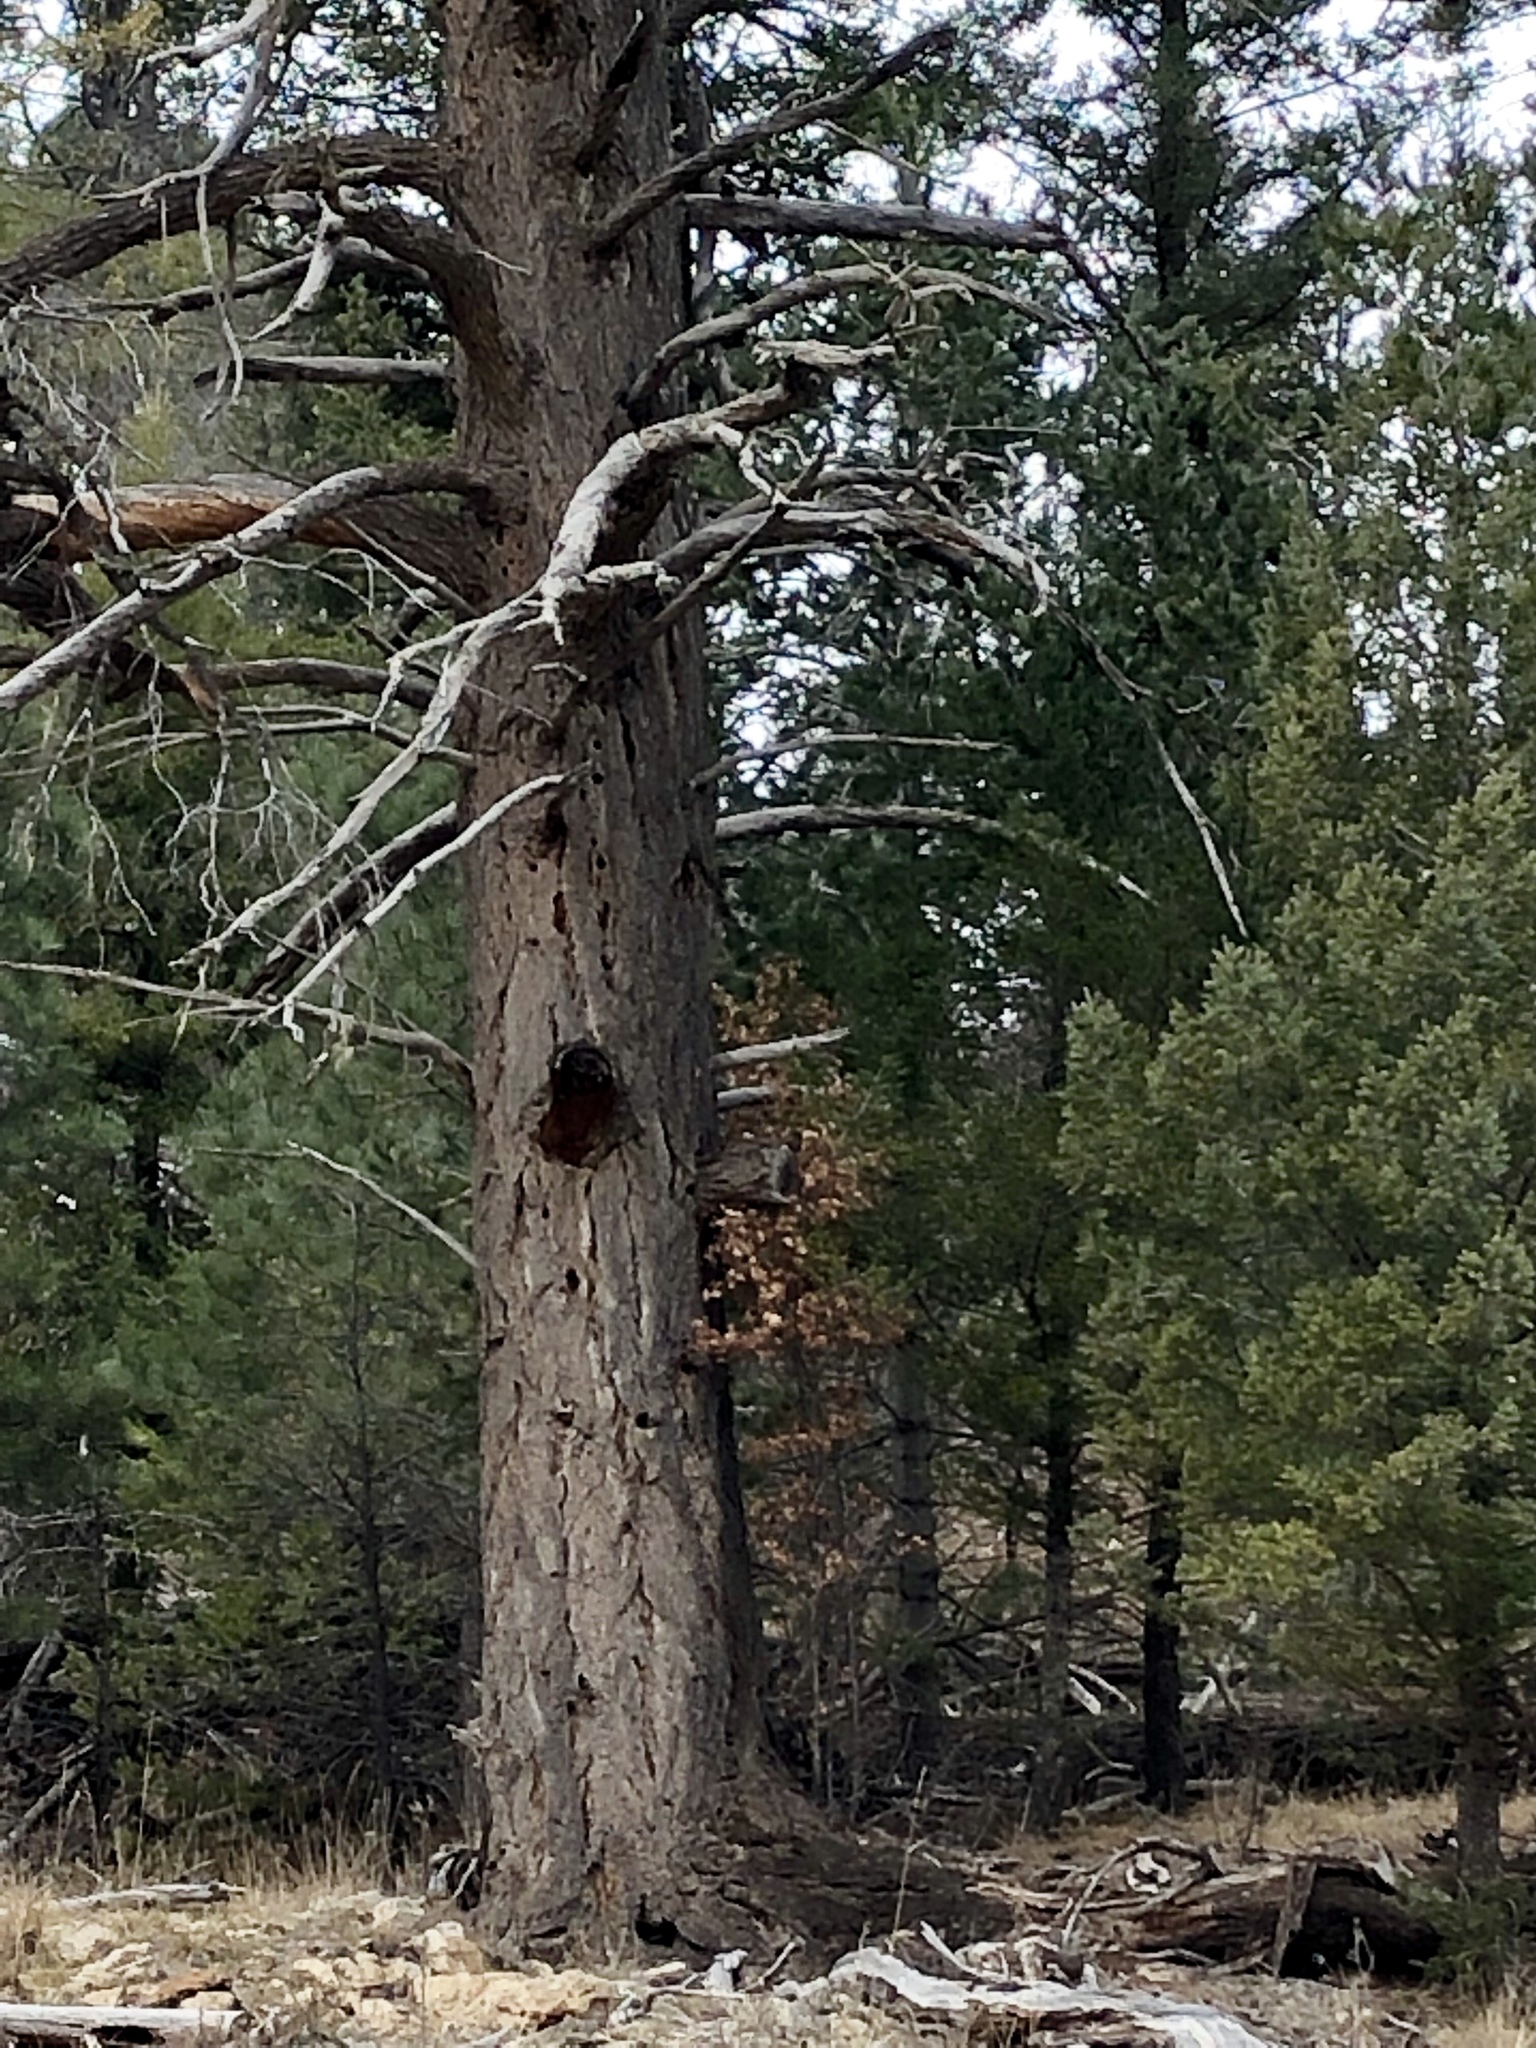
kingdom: Plantae
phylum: Tracheophyta
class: Pinopsida
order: Pinales
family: Pinaceae
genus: Pseudotsuga
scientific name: Pseudotsuga menziesii
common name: Douglas fir
